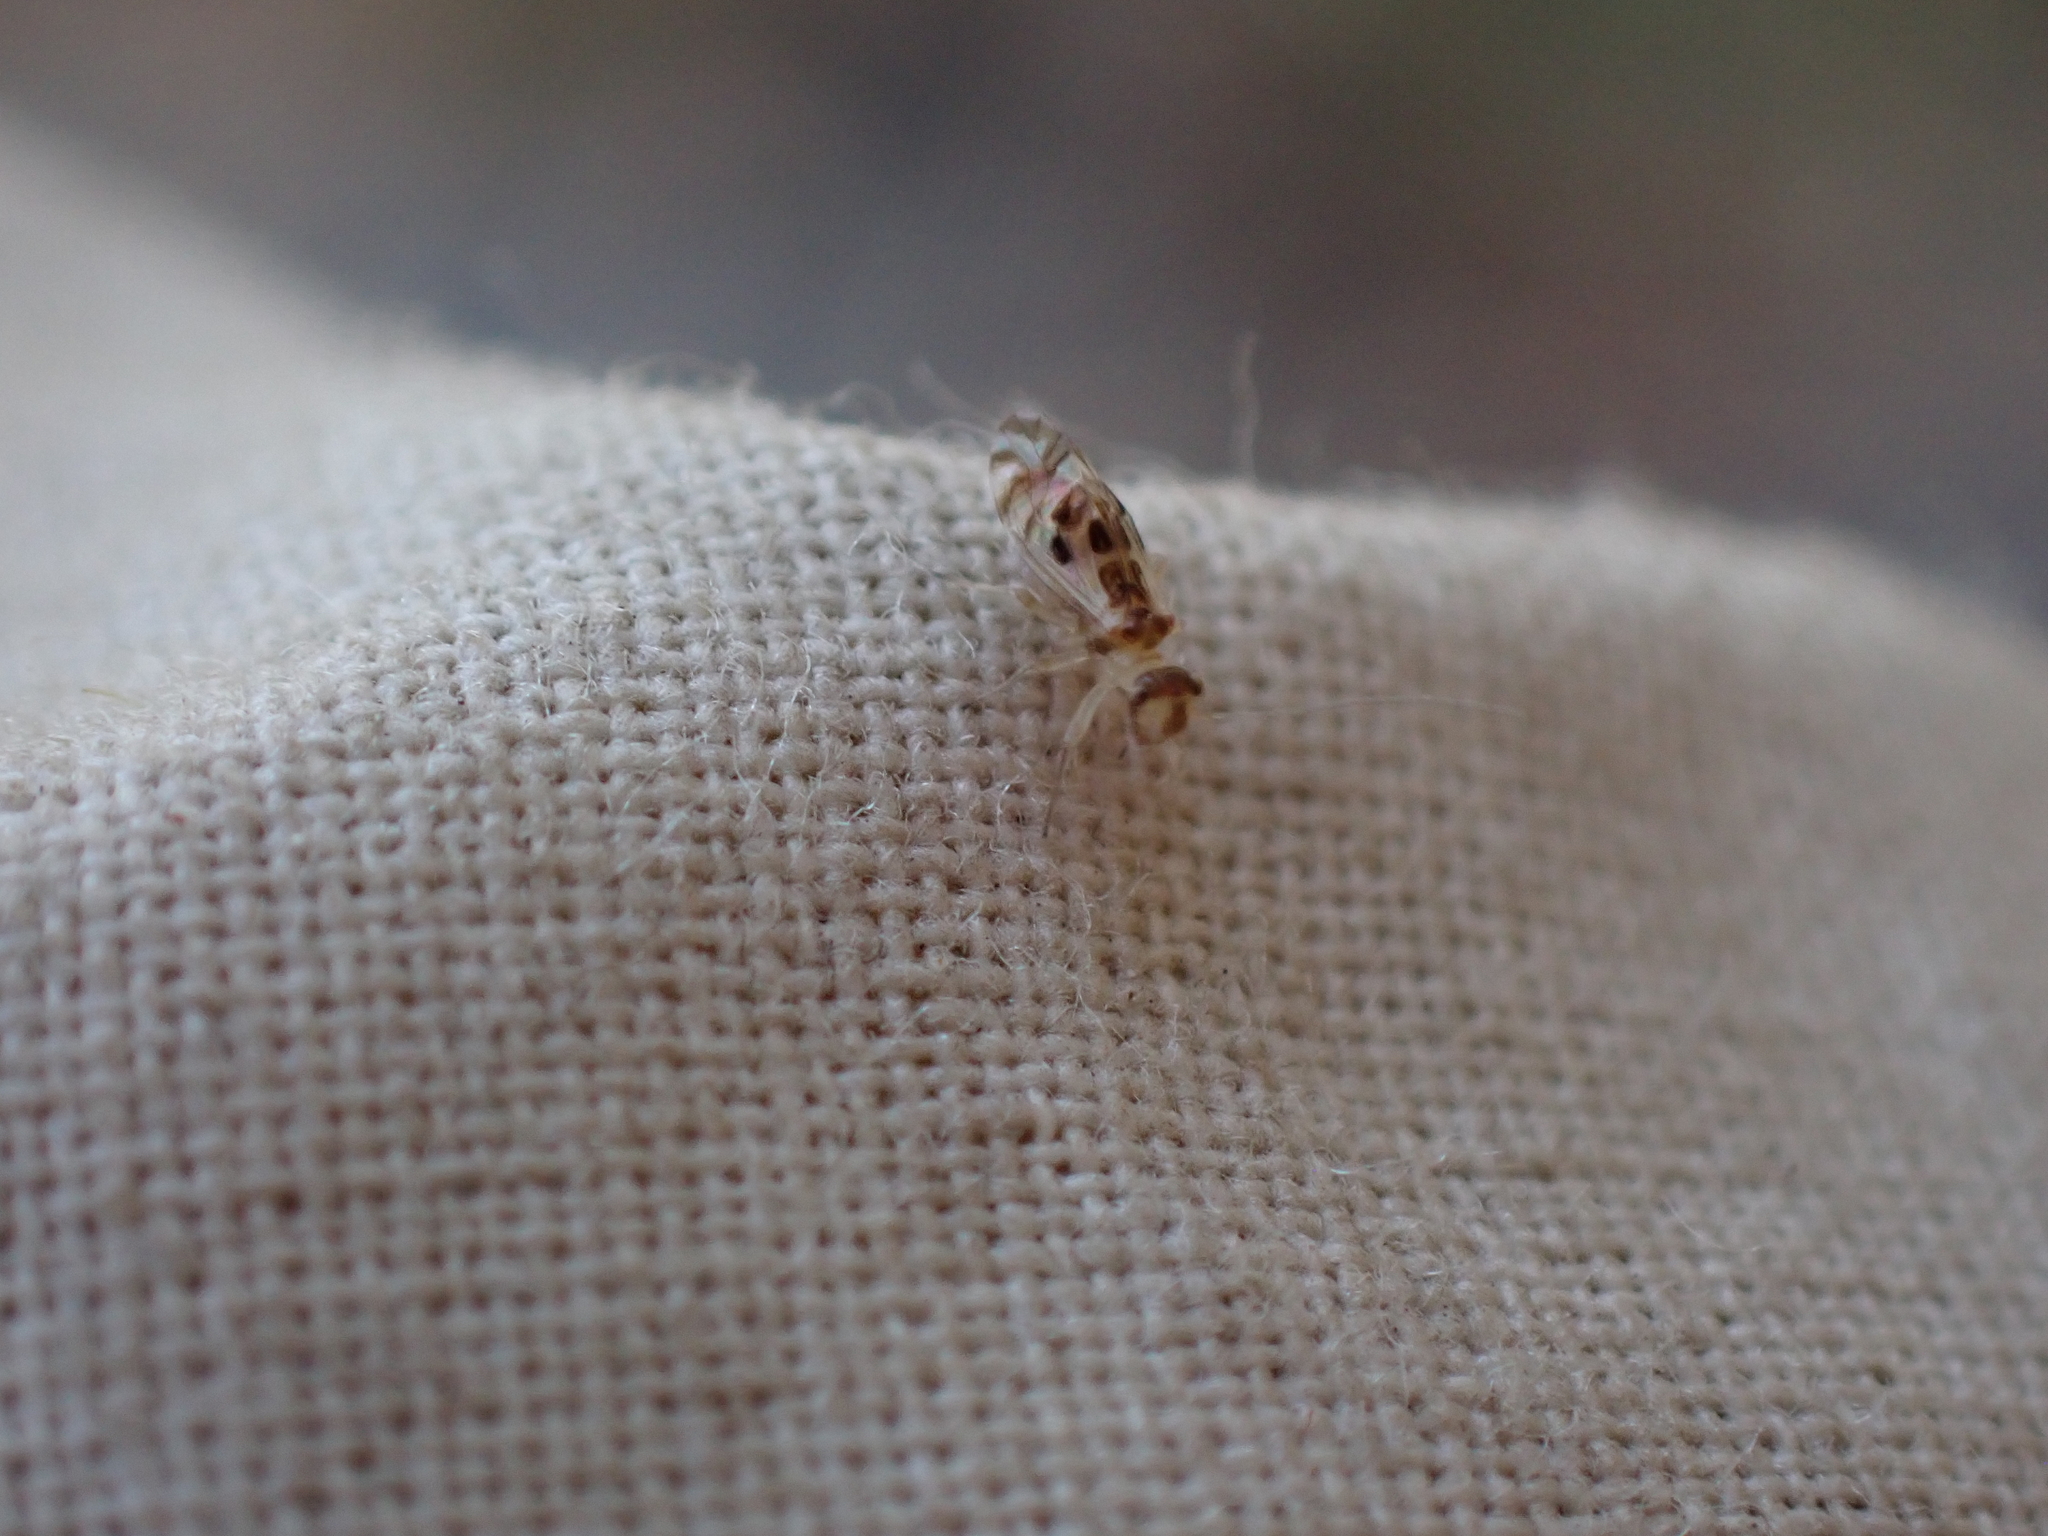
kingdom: Animalia
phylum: Arthropoda
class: Insecta
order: Psocodea
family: Stenopsocidae
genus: Graphopsocus
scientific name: Graphopsocus cruciatus
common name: Lizard bark louse
